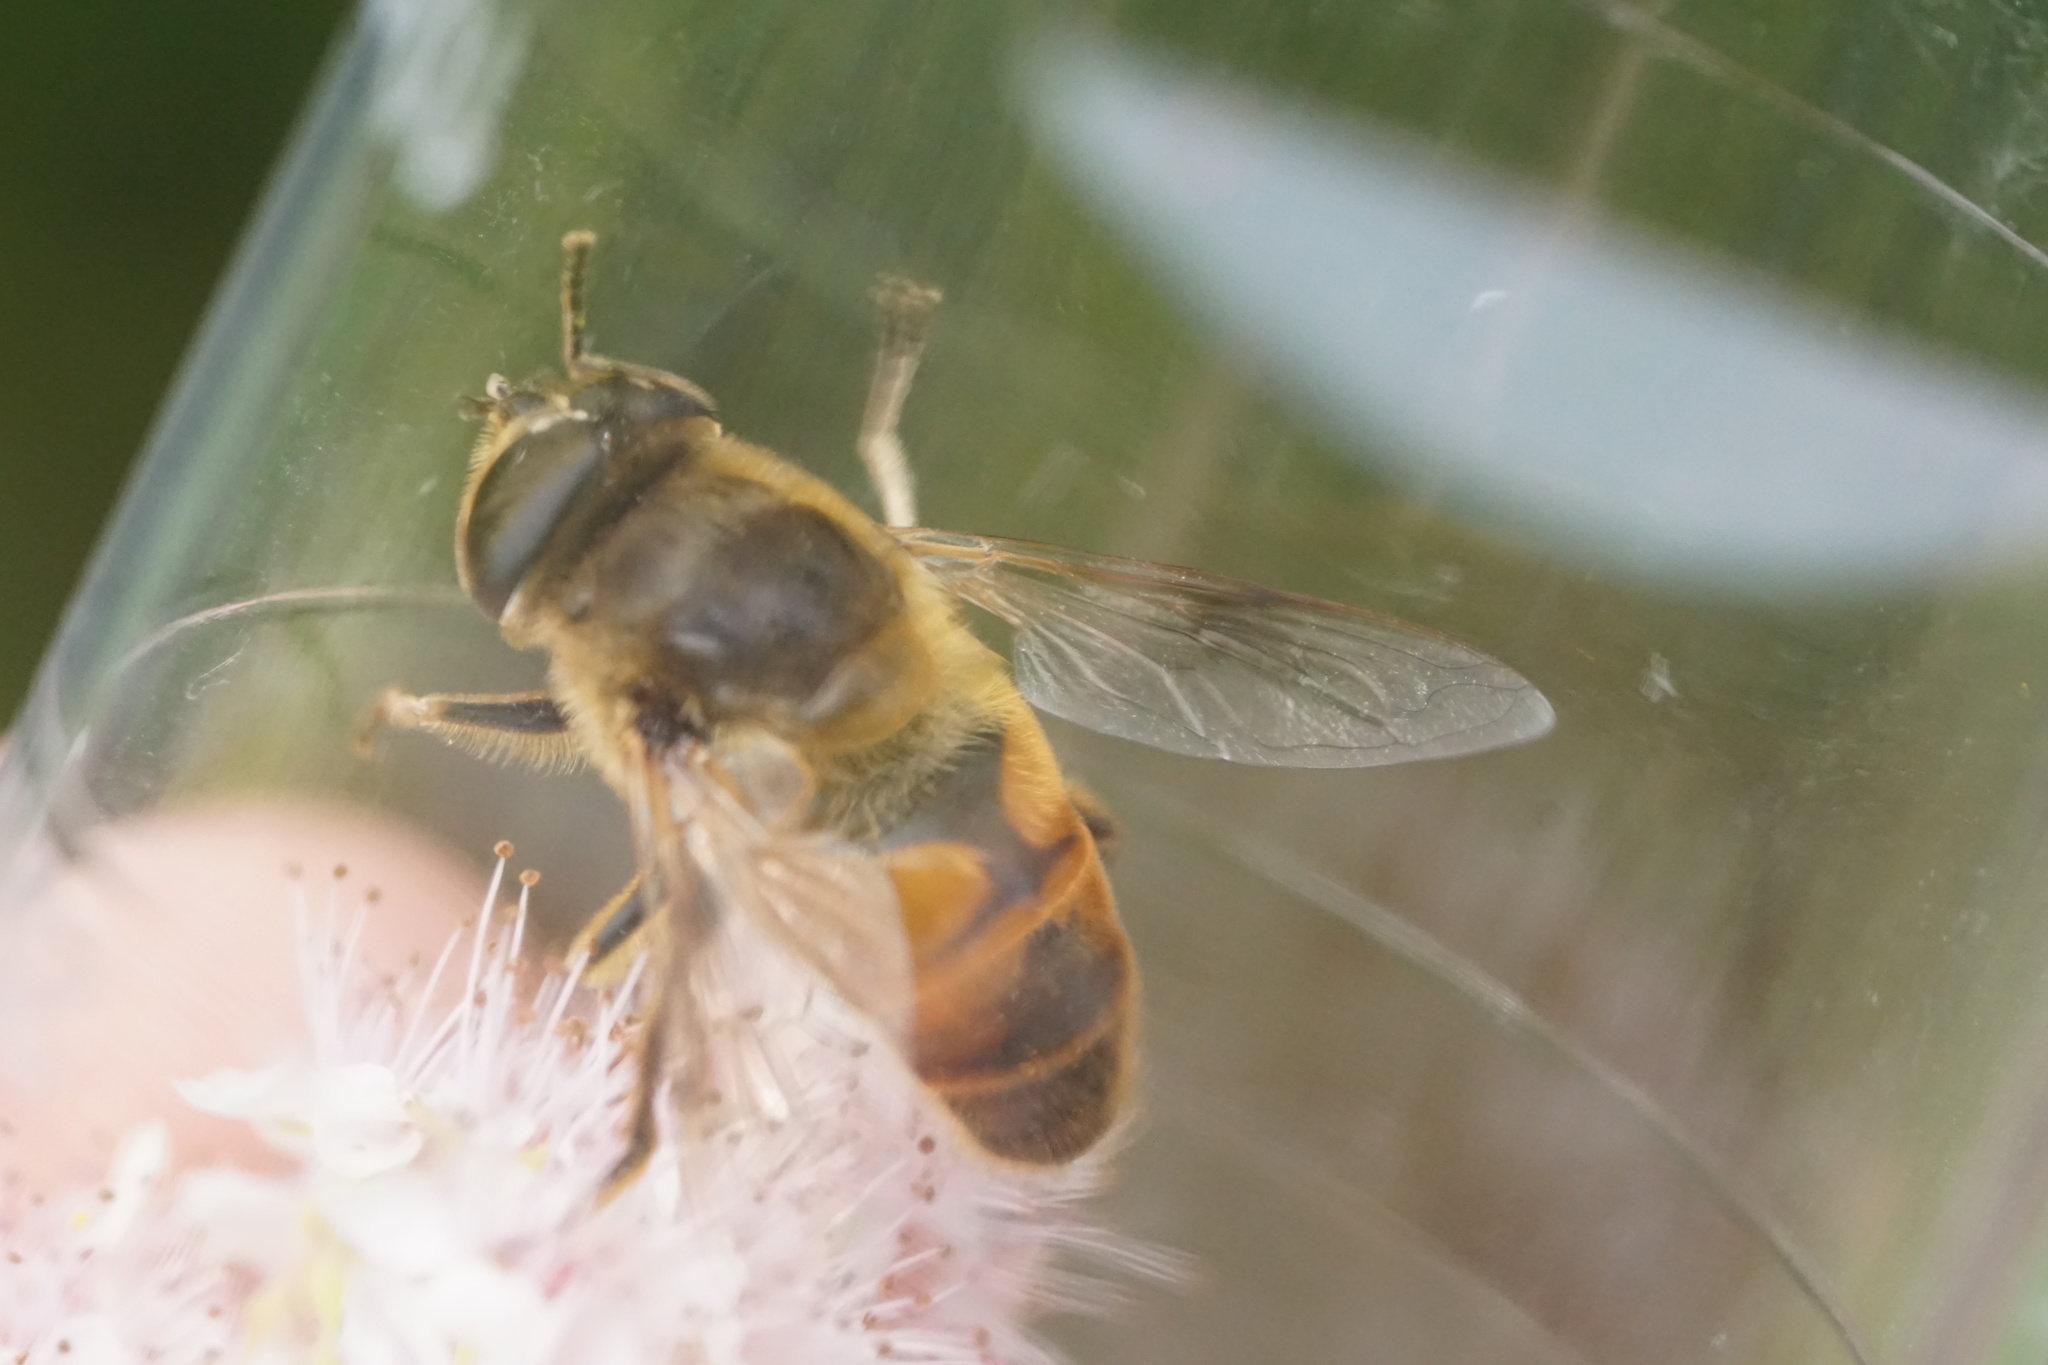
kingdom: Animalia
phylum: Arthropoda
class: Insecta
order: Diptera
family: Syrphidae
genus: Eristalis
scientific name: Eristalis tenax
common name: Drone fly
